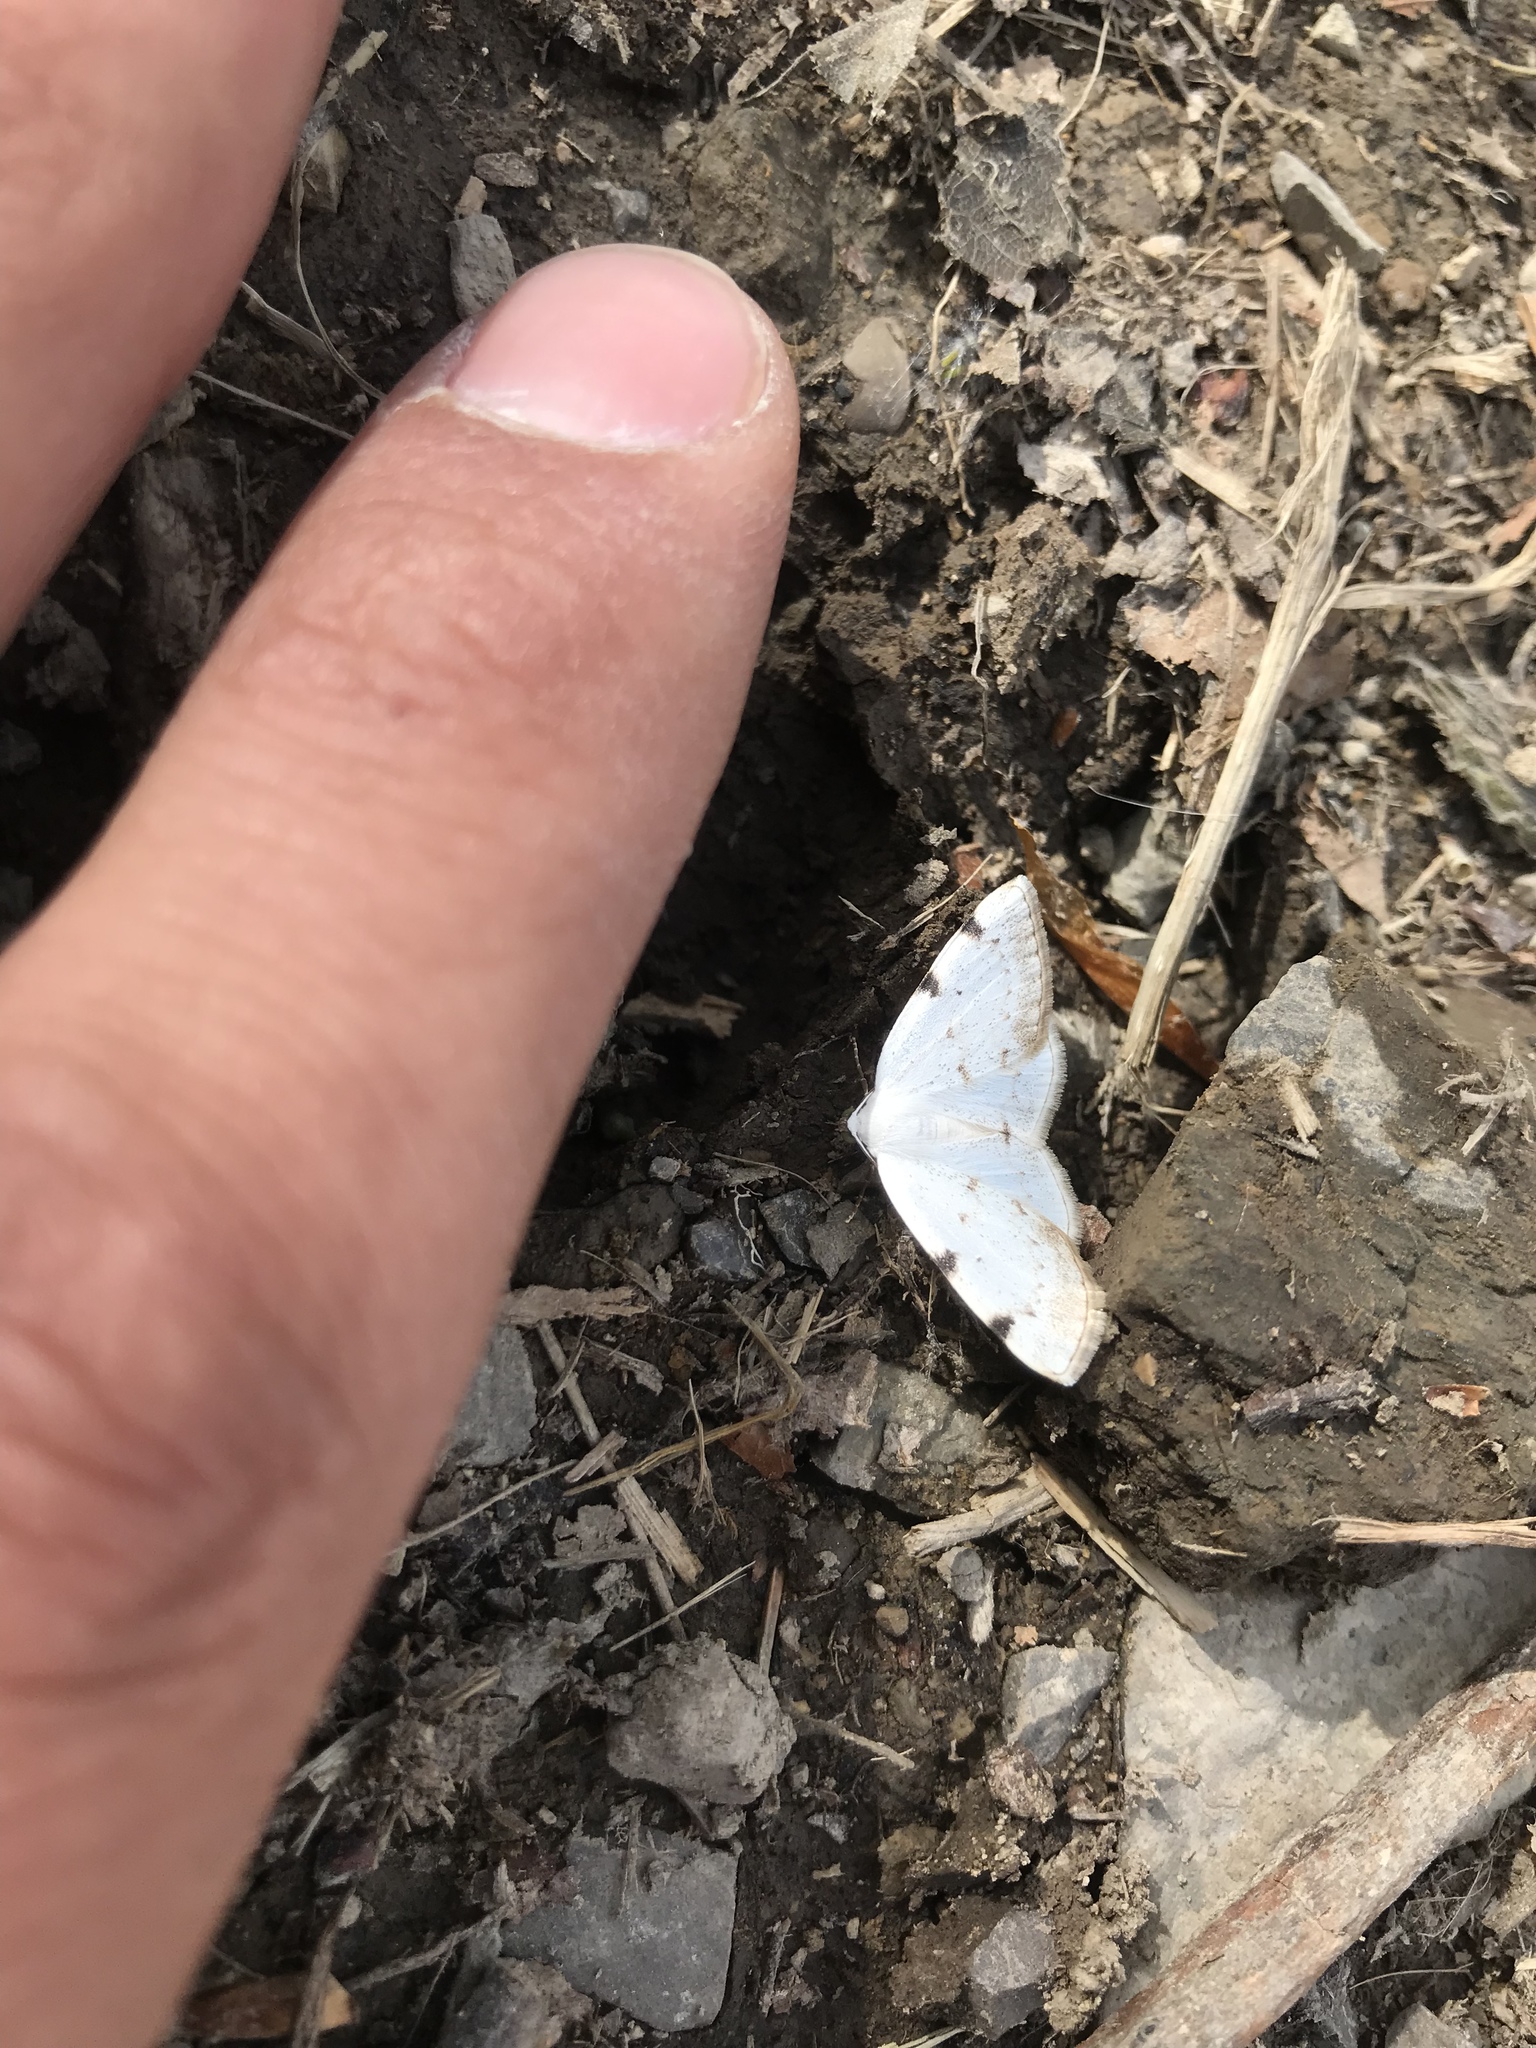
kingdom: Animalia
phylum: Arthropoda
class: Insecta
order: Lepidoptera
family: Geometridae
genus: Lomographa
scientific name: Lomographa bimaculata
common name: White-pinion spotted
